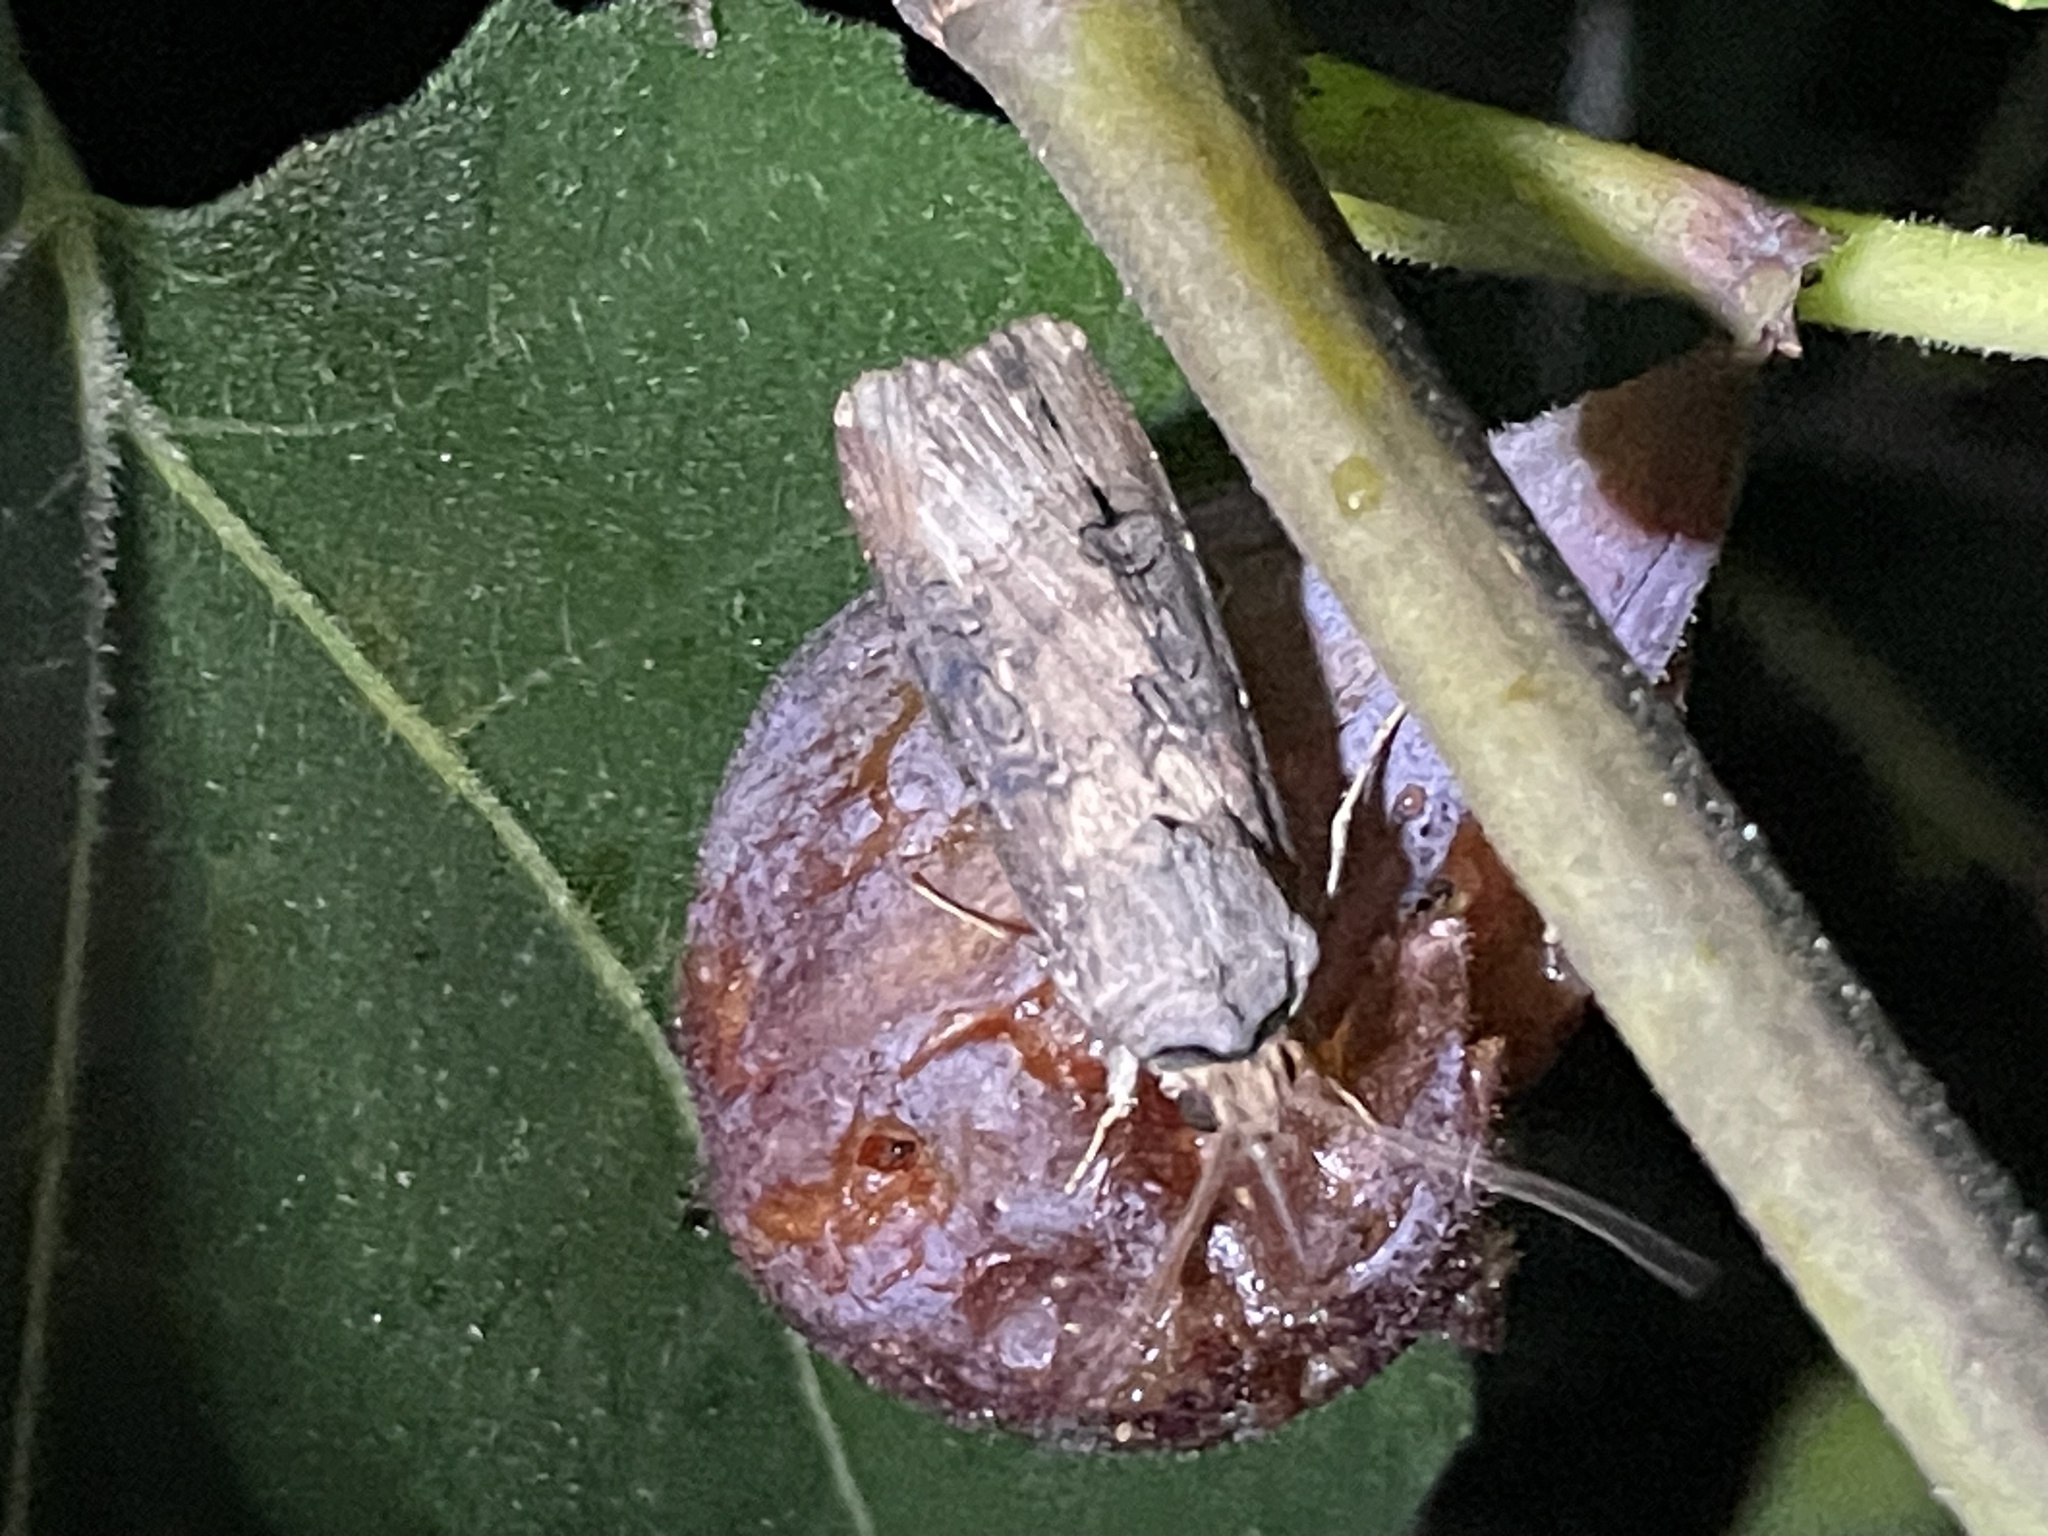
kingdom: Animalia
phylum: Arthropoda
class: Insecta
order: Lepidoptera
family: Noctuidae
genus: Agrotis
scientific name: Agrotis ipsilon
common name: Dark sword-grass
